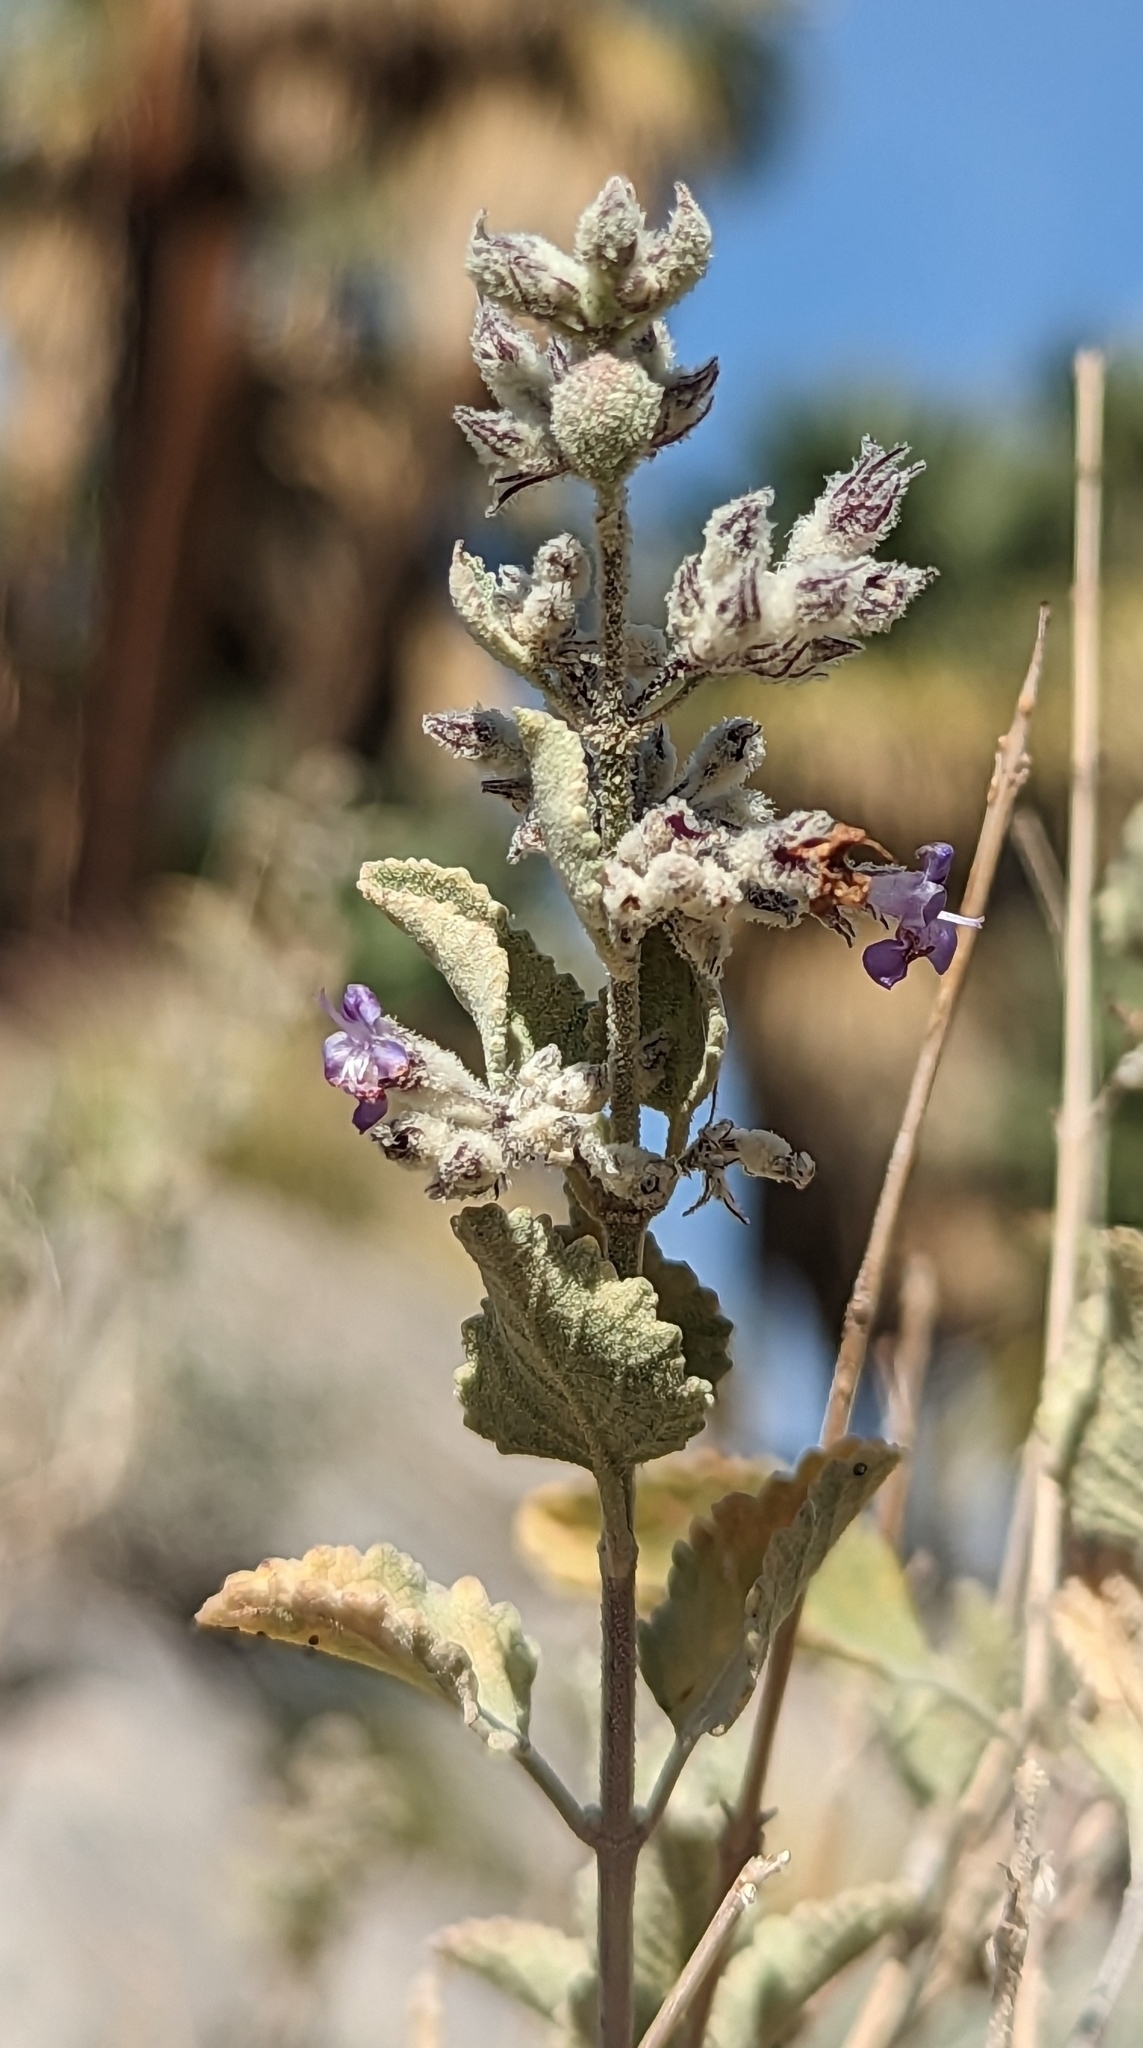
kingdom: Plantae
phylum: Tracheophyta
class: Magnoliopsida
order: Lamiales
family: Lamiaceae
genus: Condea
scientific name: Condea emoryi
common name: Chia
